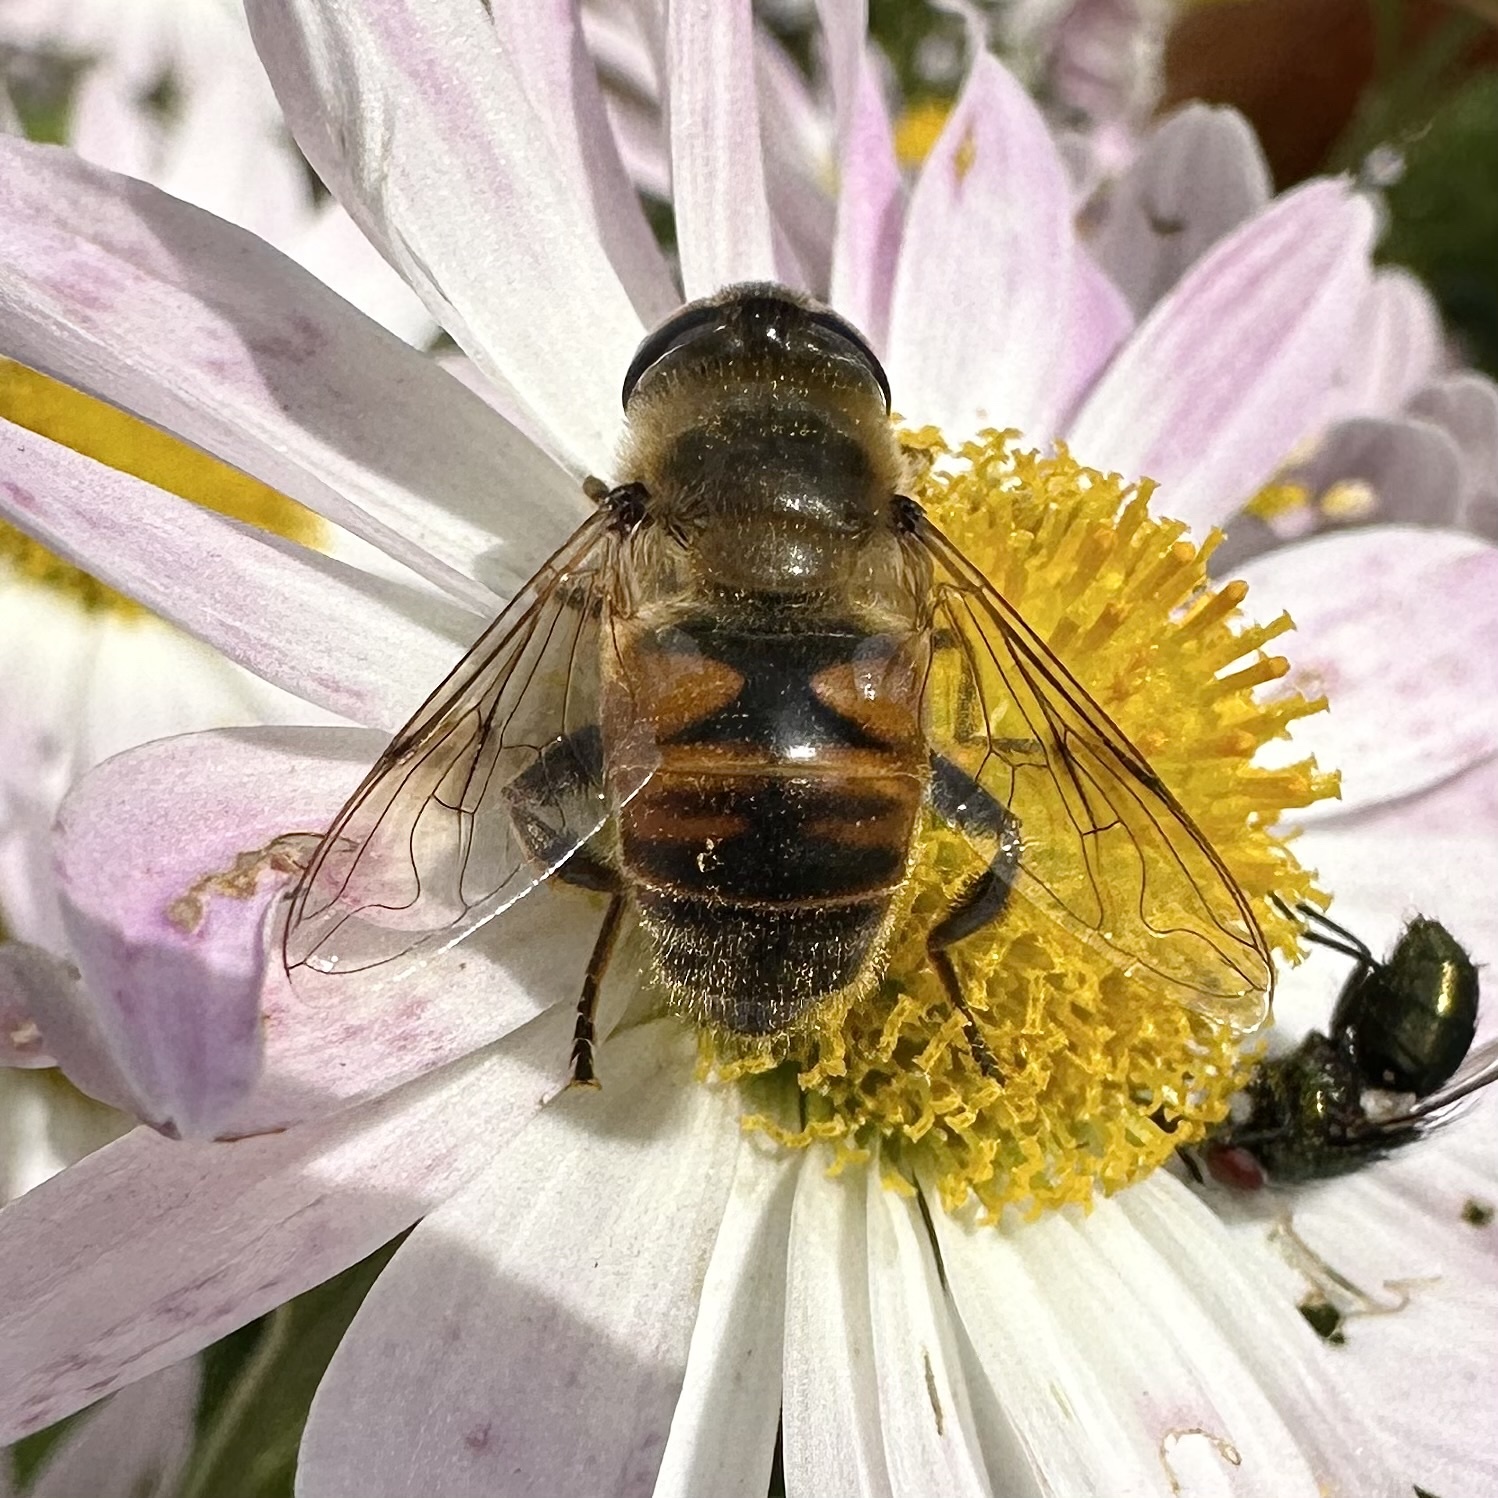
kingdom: Animalia
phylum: Arthropoda
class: Insecta
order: Diptera
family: Syrphidae
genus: Eristalis
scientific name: Eristalis tenax
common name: Drone fly
